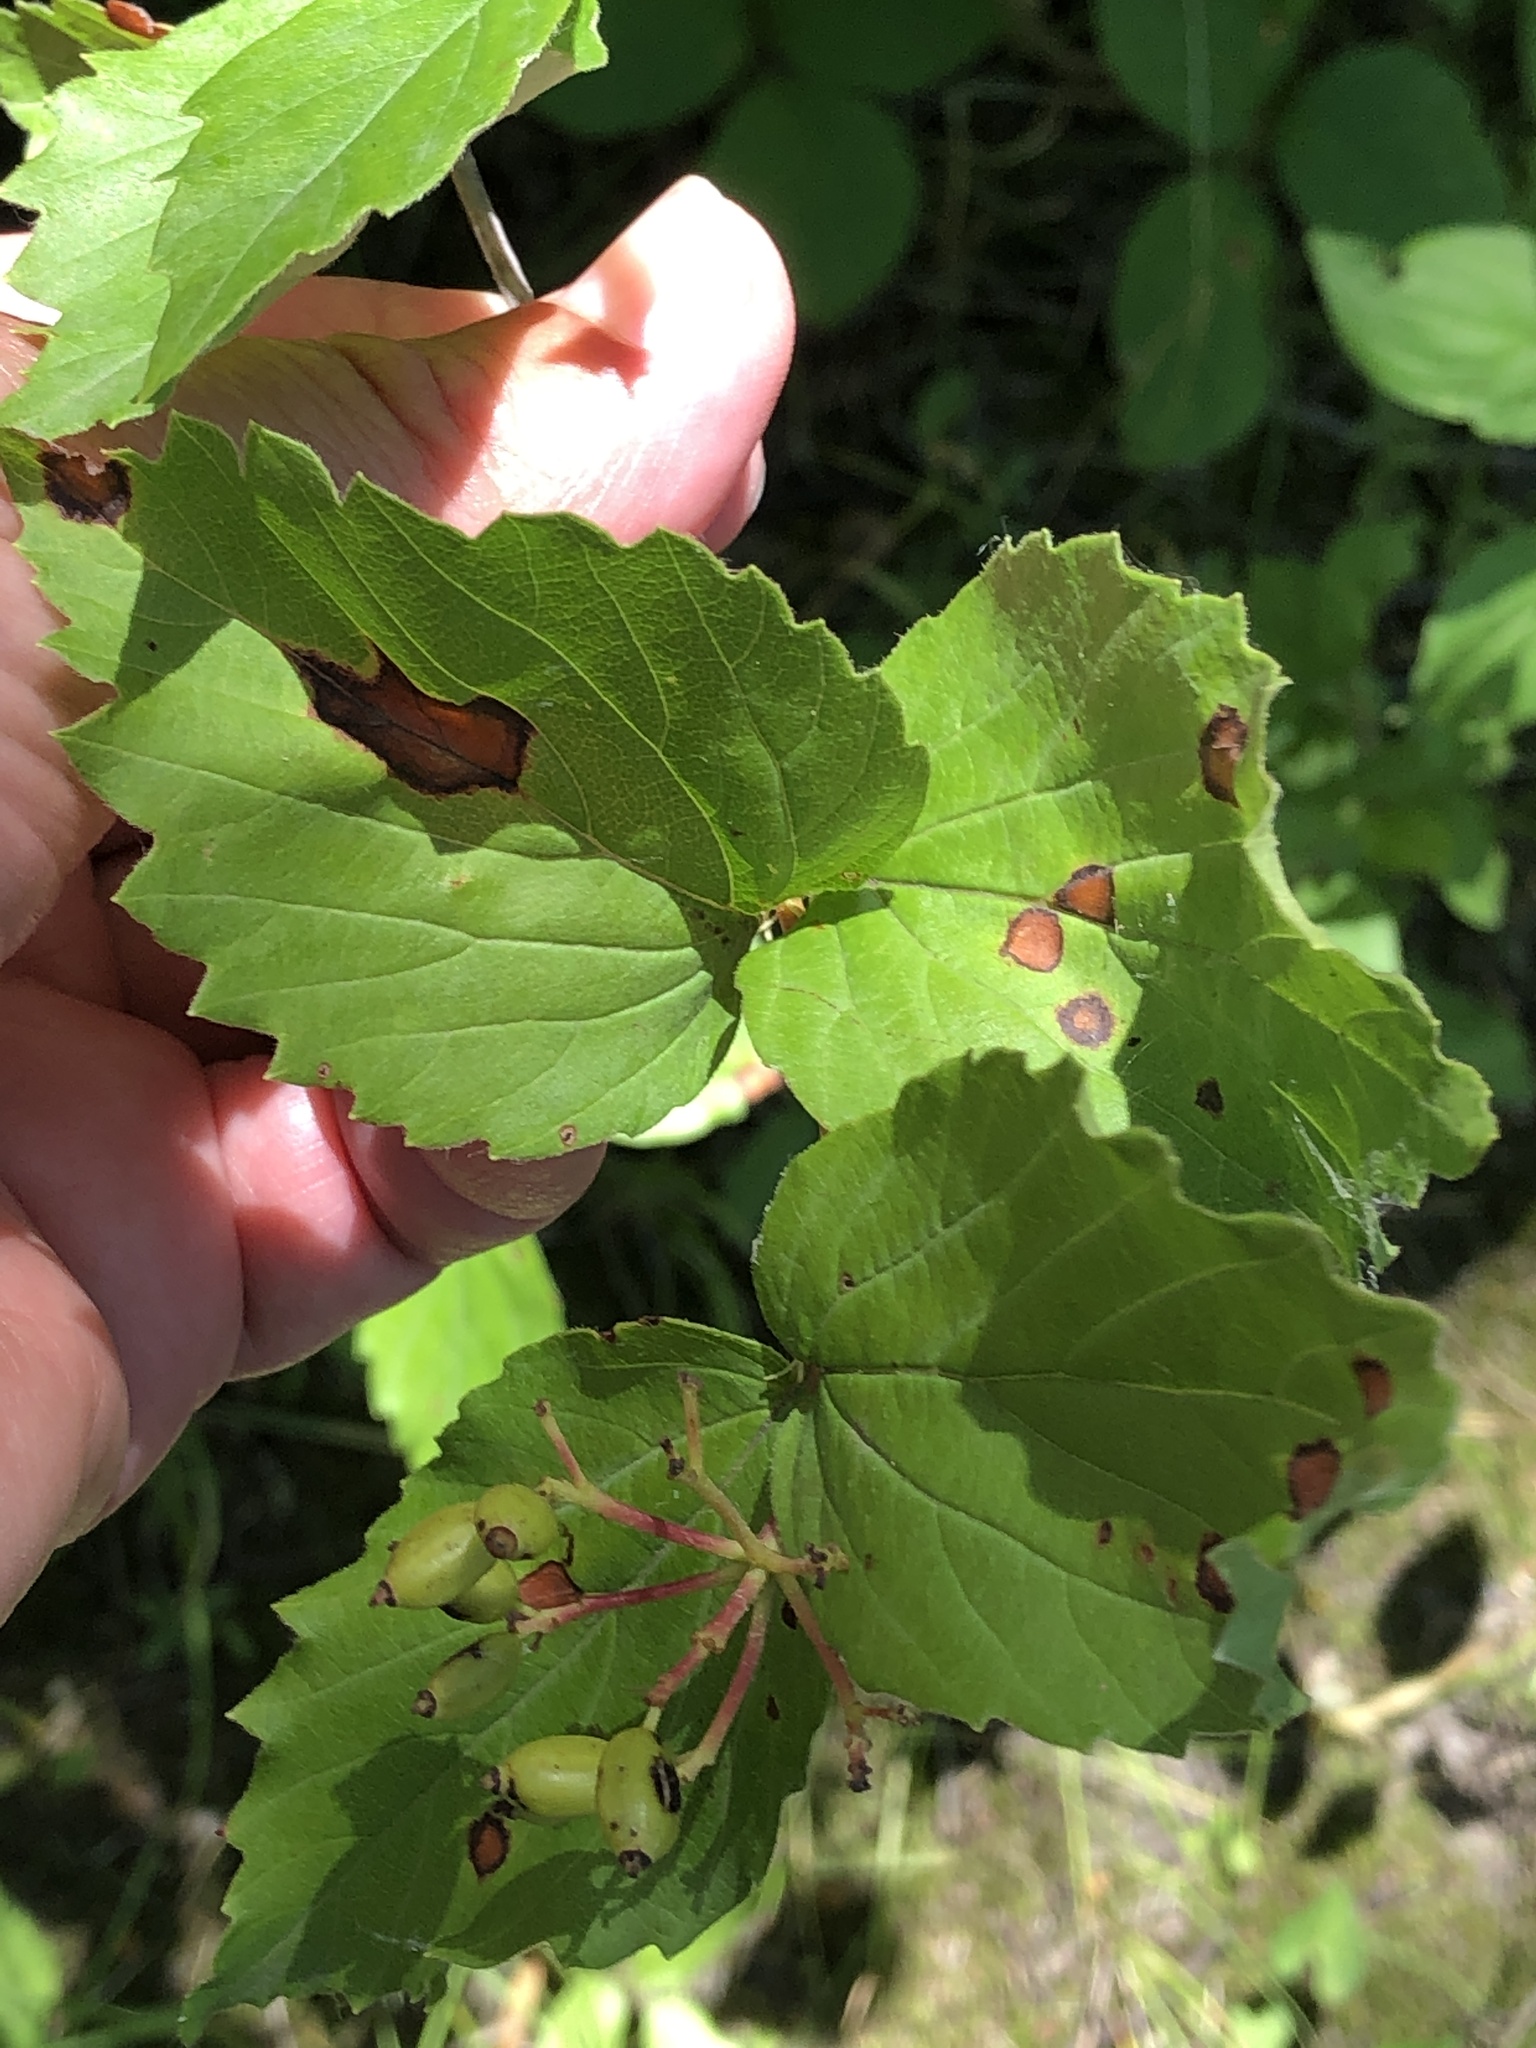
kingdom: Plantae
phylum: Tracheophyta
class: Magnoliopsida
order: Dipsacales
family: Viburnaceae
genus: Viburnum
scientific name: Viburnum rafinesqueanum
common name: Downy arrow-wood
